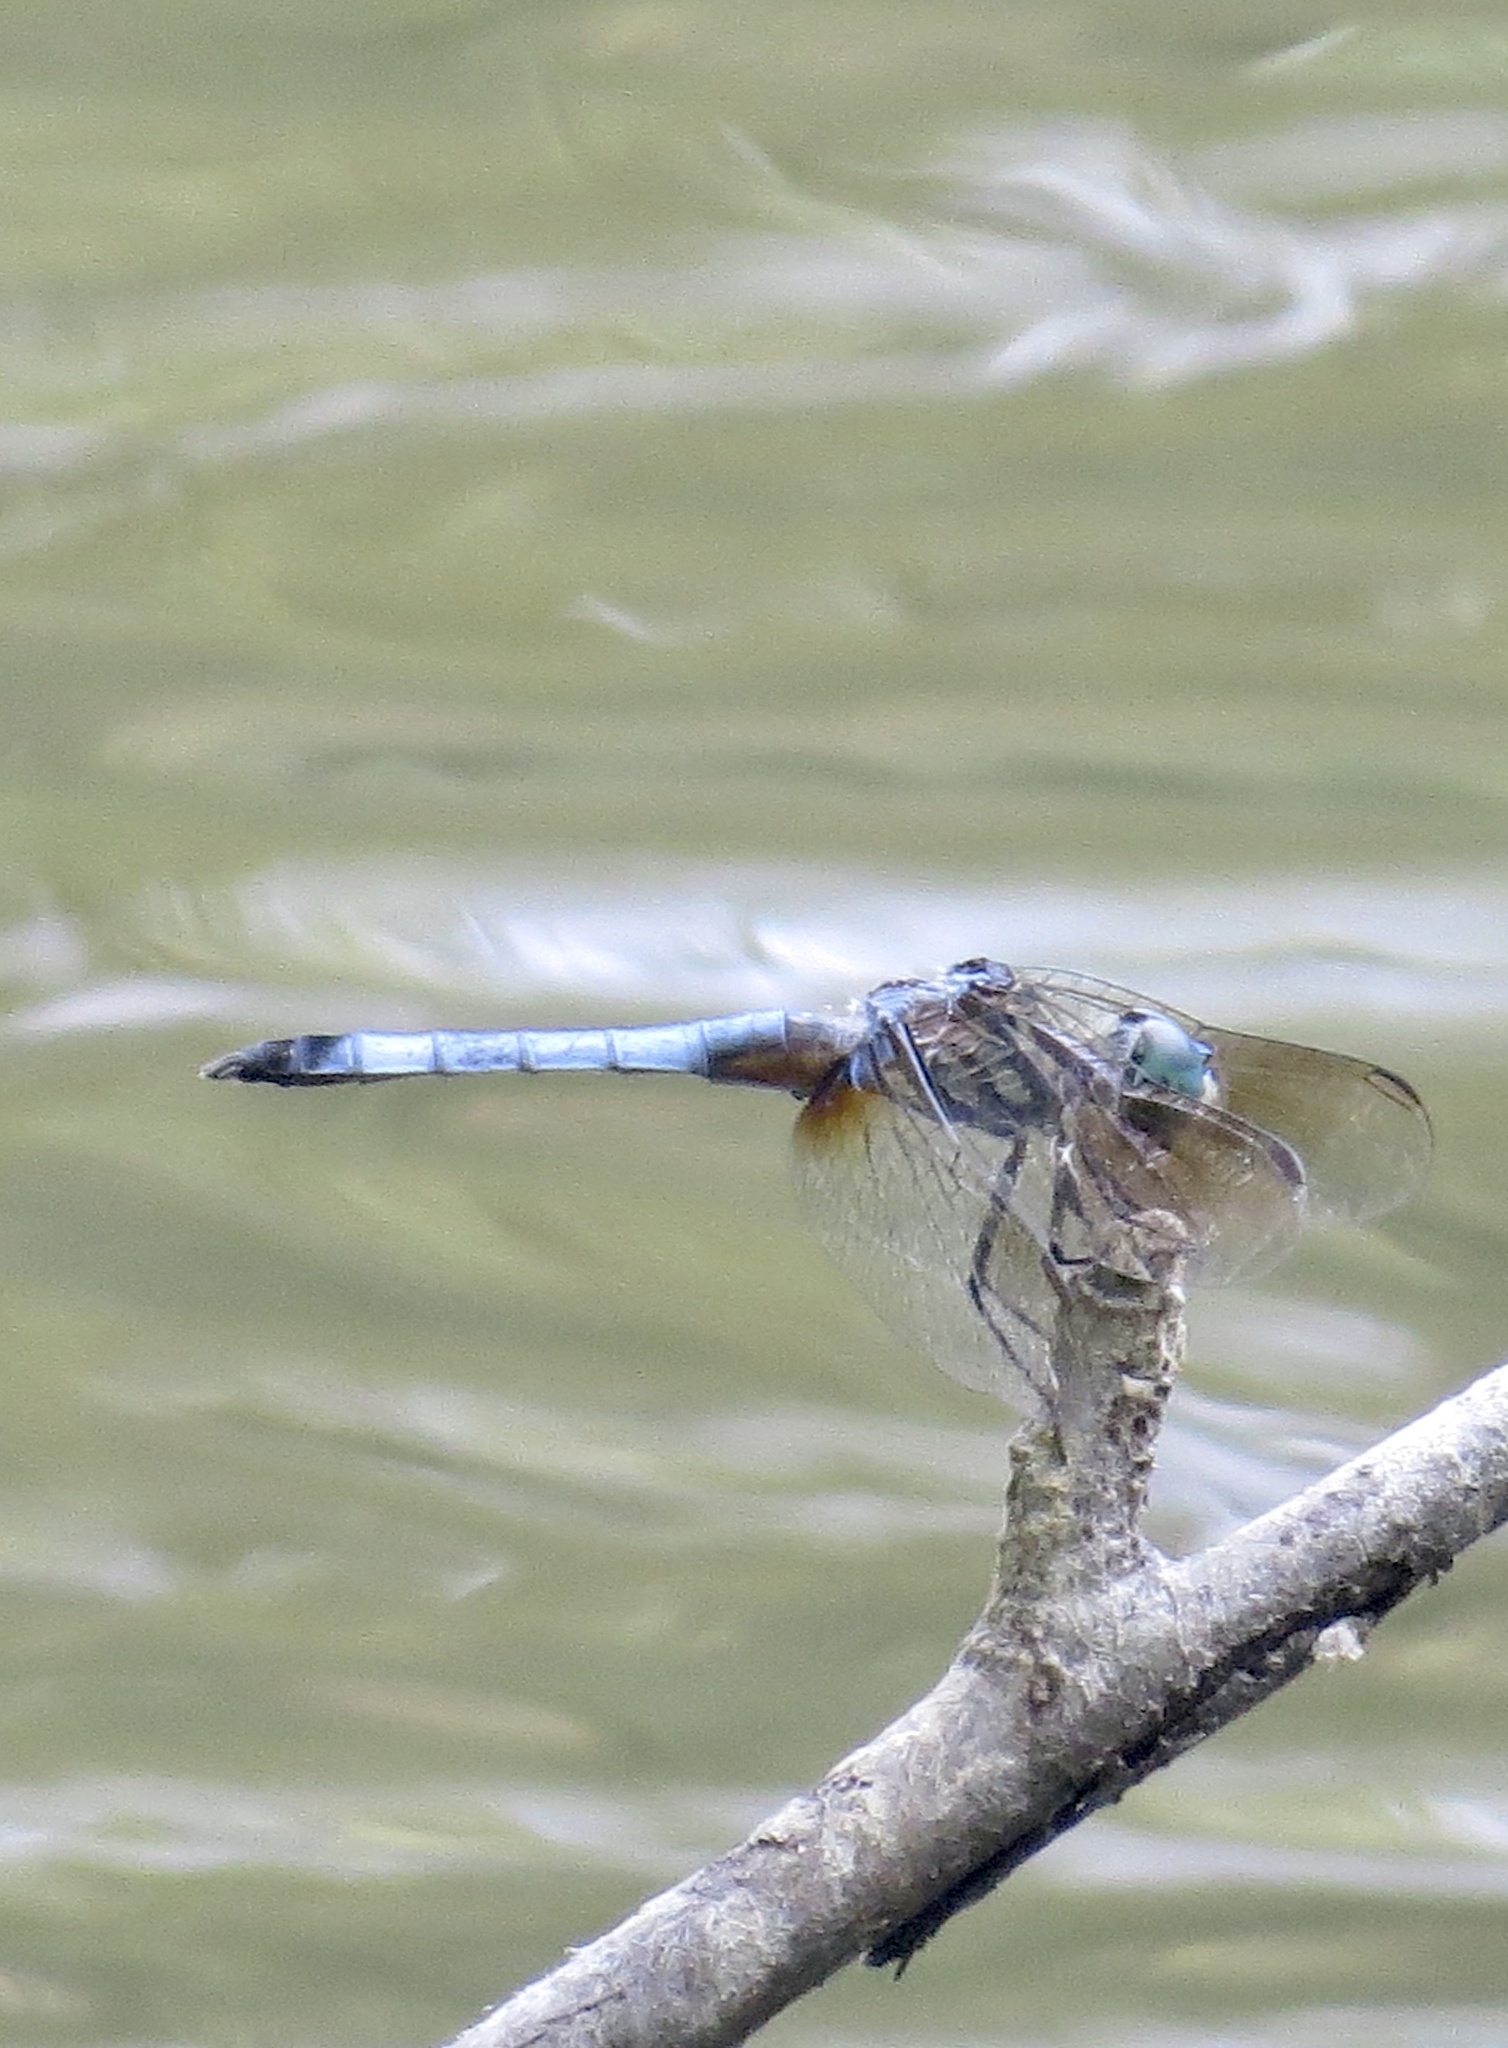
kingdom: Animalia
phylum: Arthropoda
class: Insecta
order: Odonata
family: Libellulidae
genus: Pachydiplax
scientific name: Pachydiplax longipennis
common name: Blue dasher
